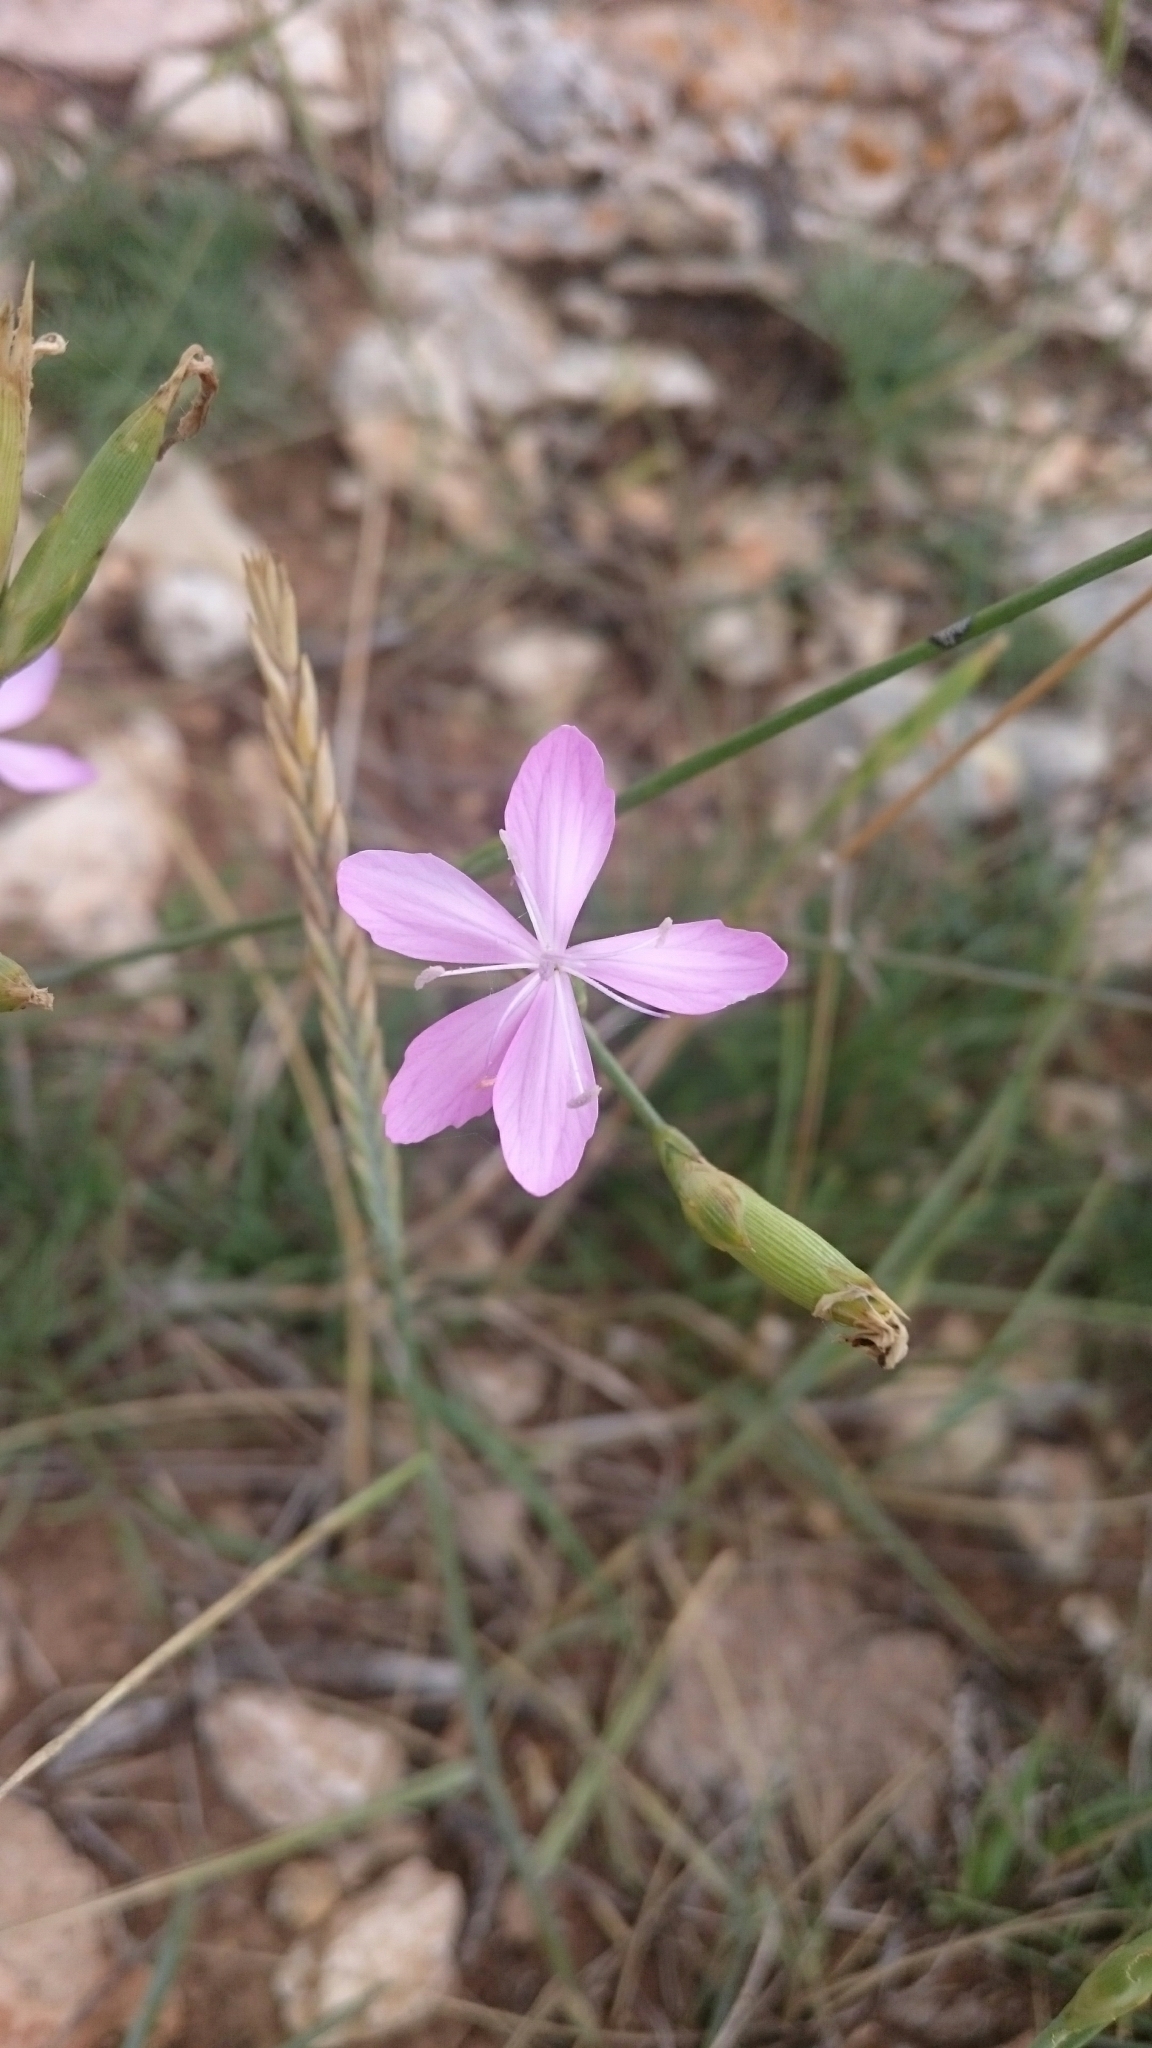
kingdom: Plantae
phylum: Tracheophyta
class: Magnoliopsida
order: Caryophyllales
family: Caryophyllaceae
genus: Dianthus
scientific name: Dianthus ciliatus
